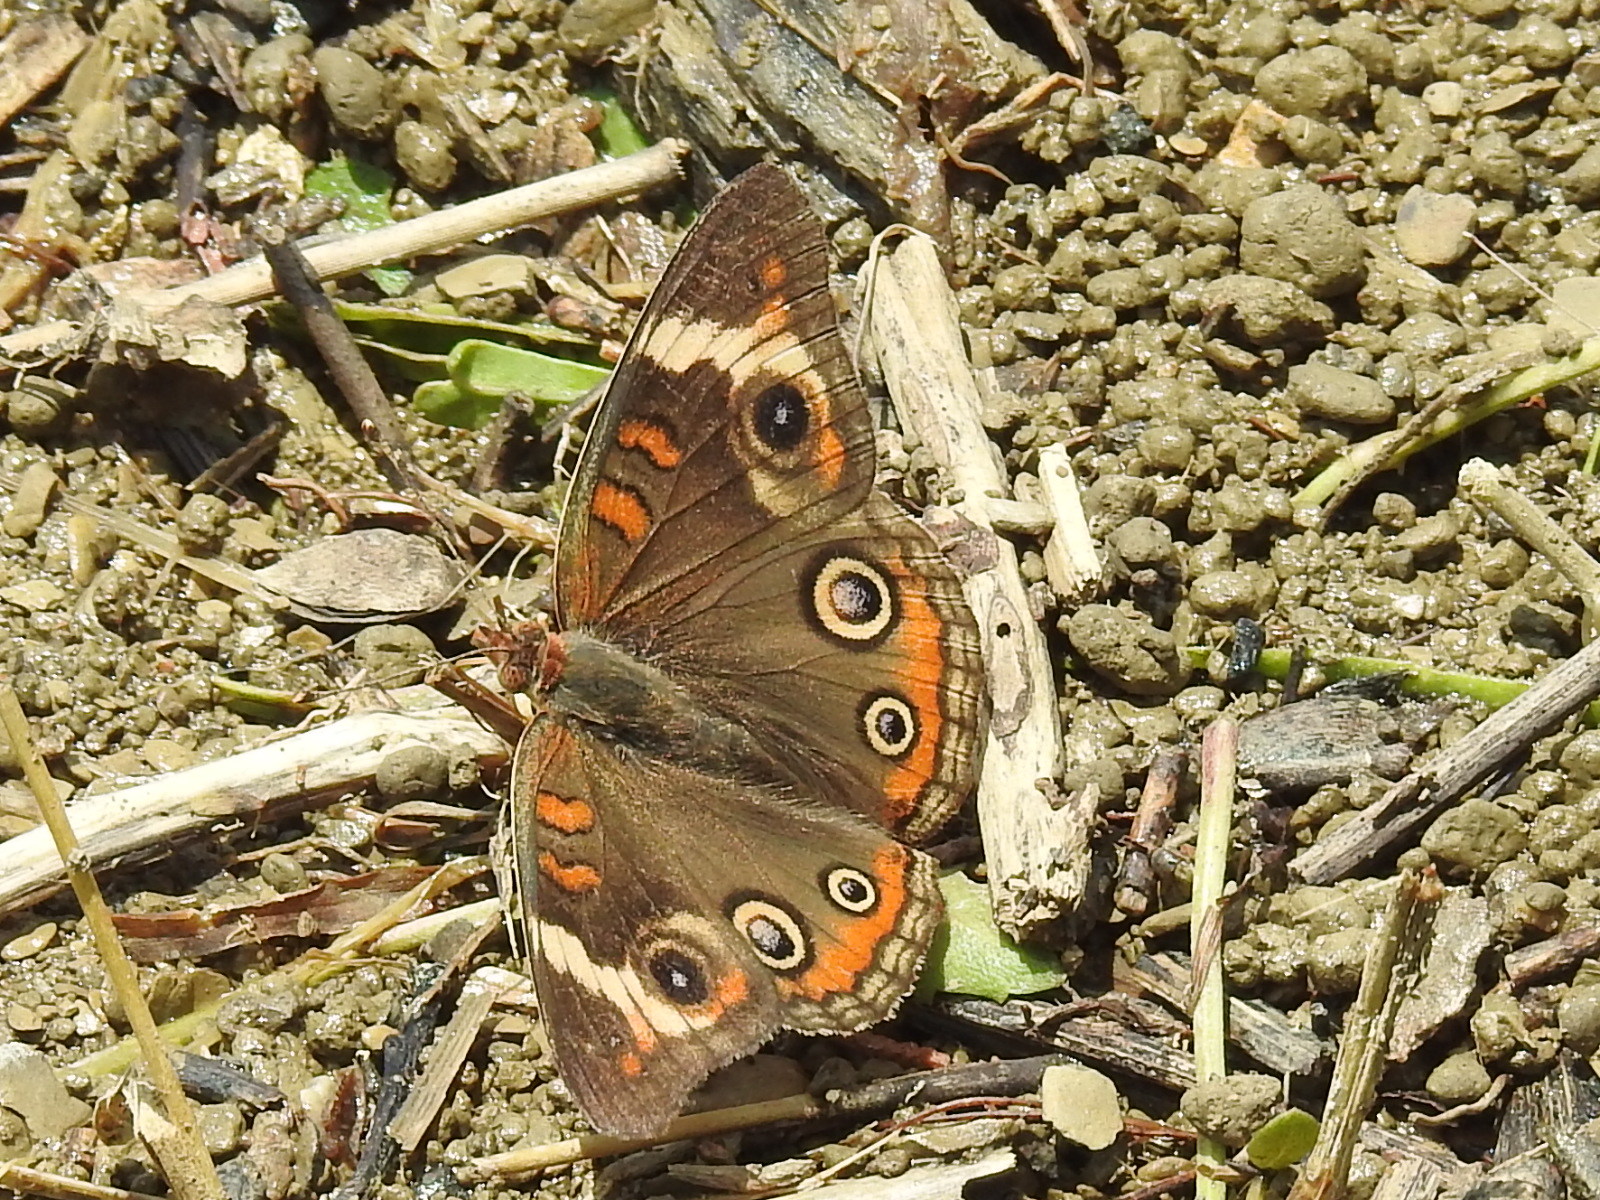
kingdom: Animalia
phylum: Arthropoda
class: Insecta
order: Lepidoptera
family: Nymphalidae
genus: Junonia
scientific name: Junonia coenia
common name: Common buckeye
